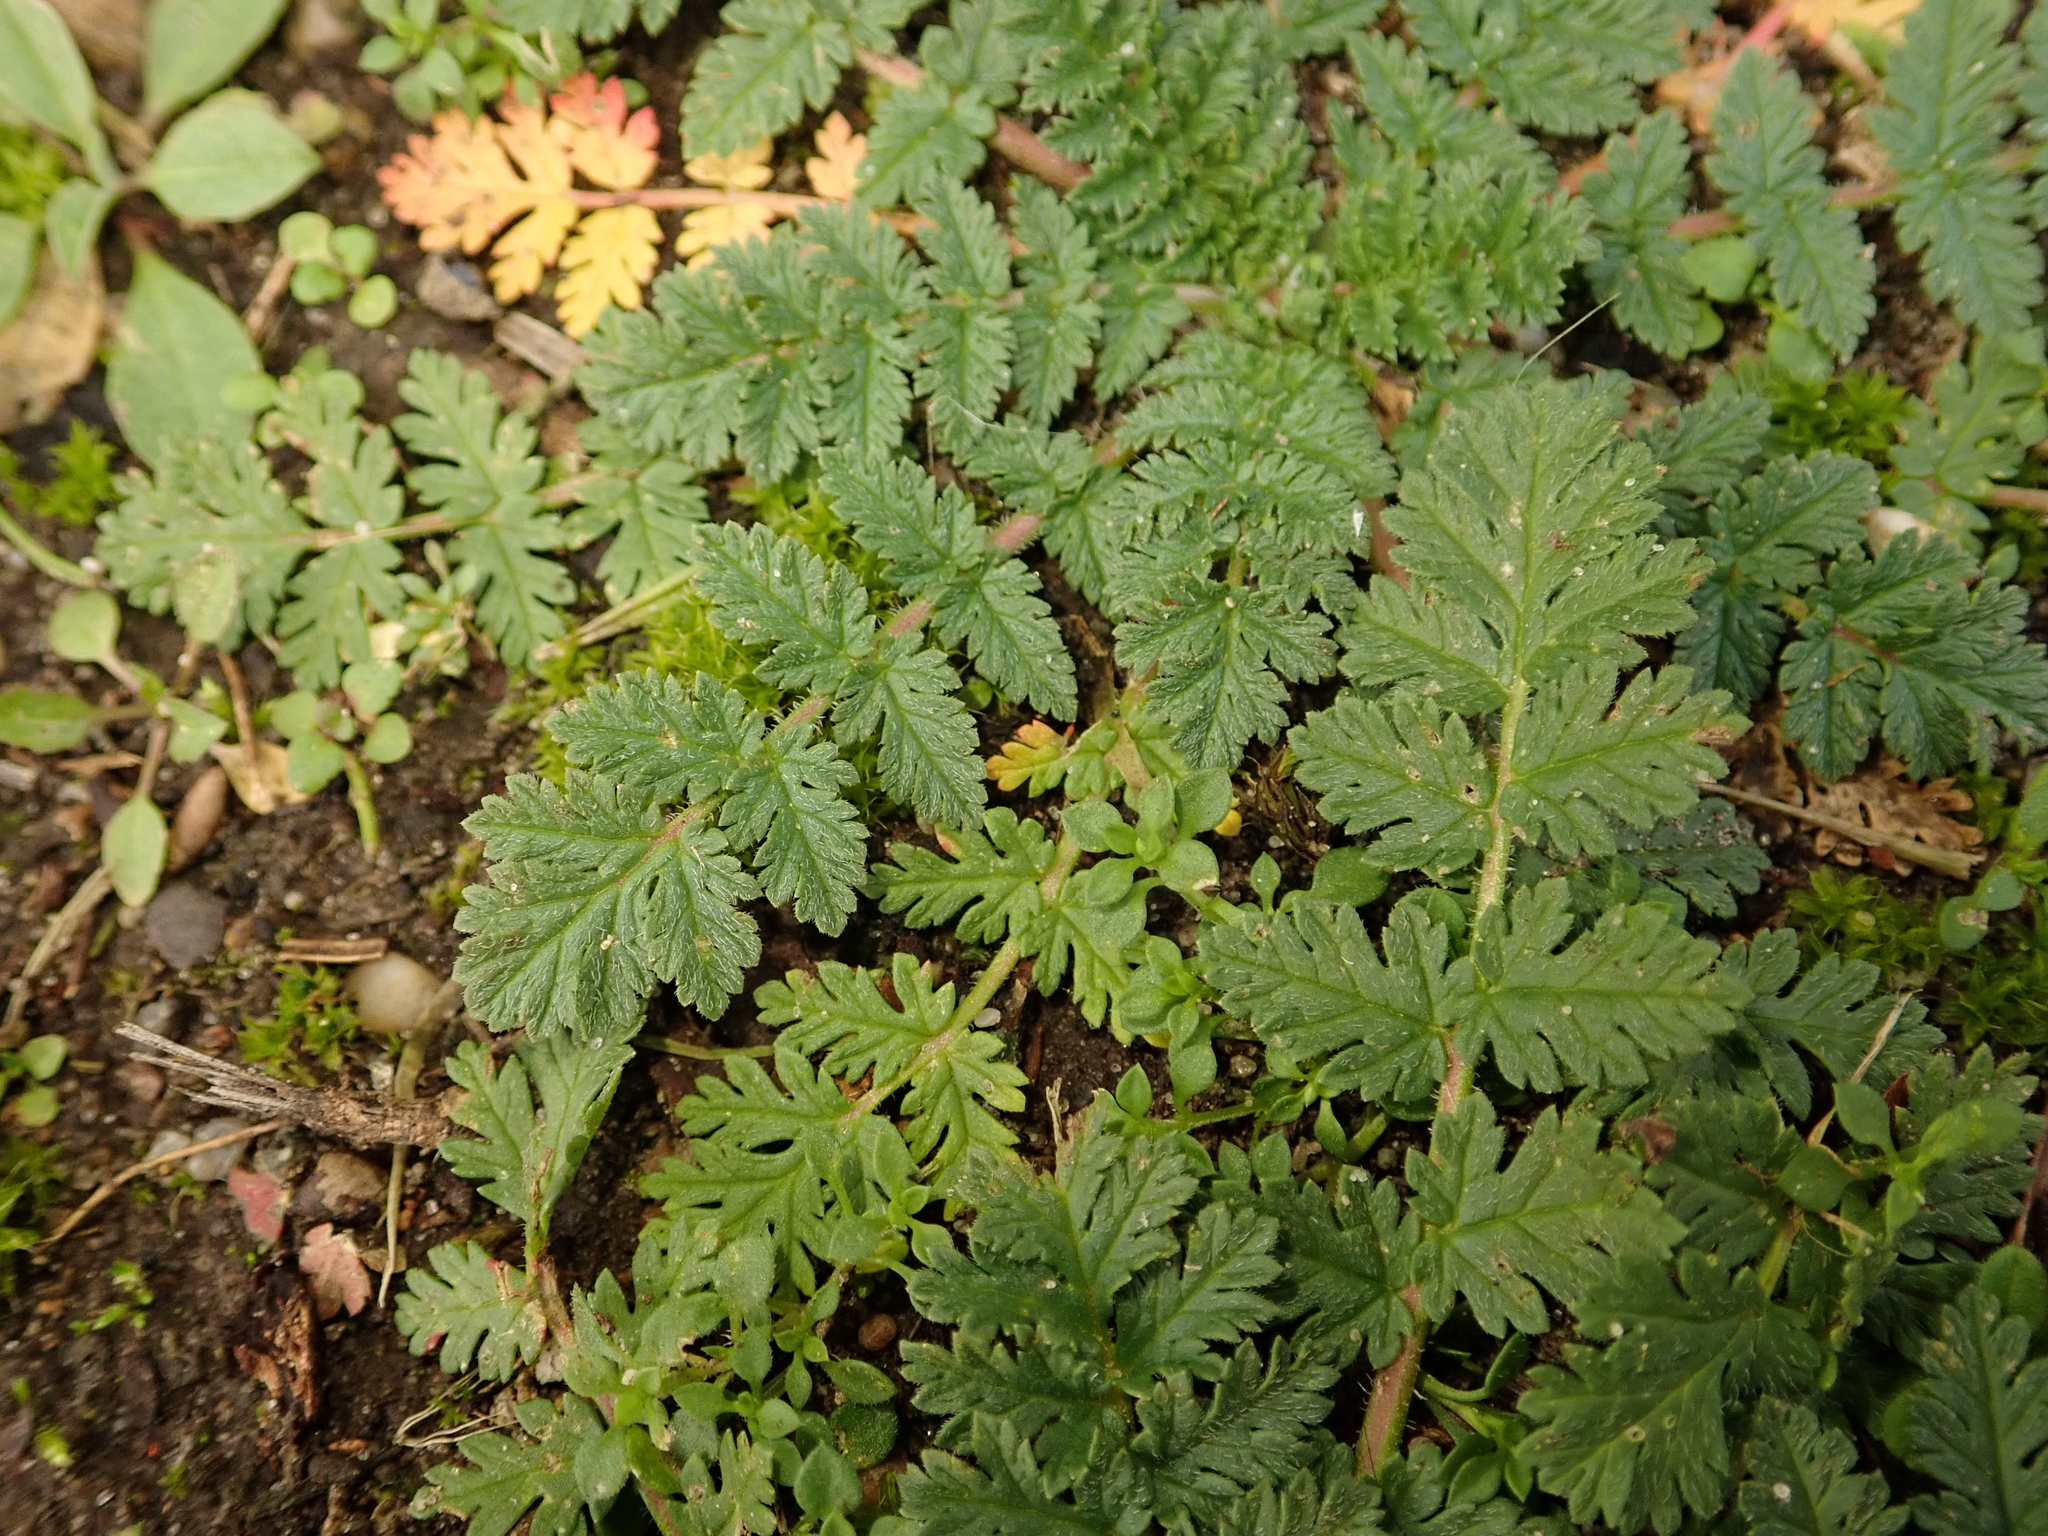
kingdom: Plantae
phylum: Tracheophyta
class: Magnoliopsida
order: Geraniales
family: Geraniaceae
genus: Erodium
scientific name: Erodium cicutarium
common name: Common stork's-bill
